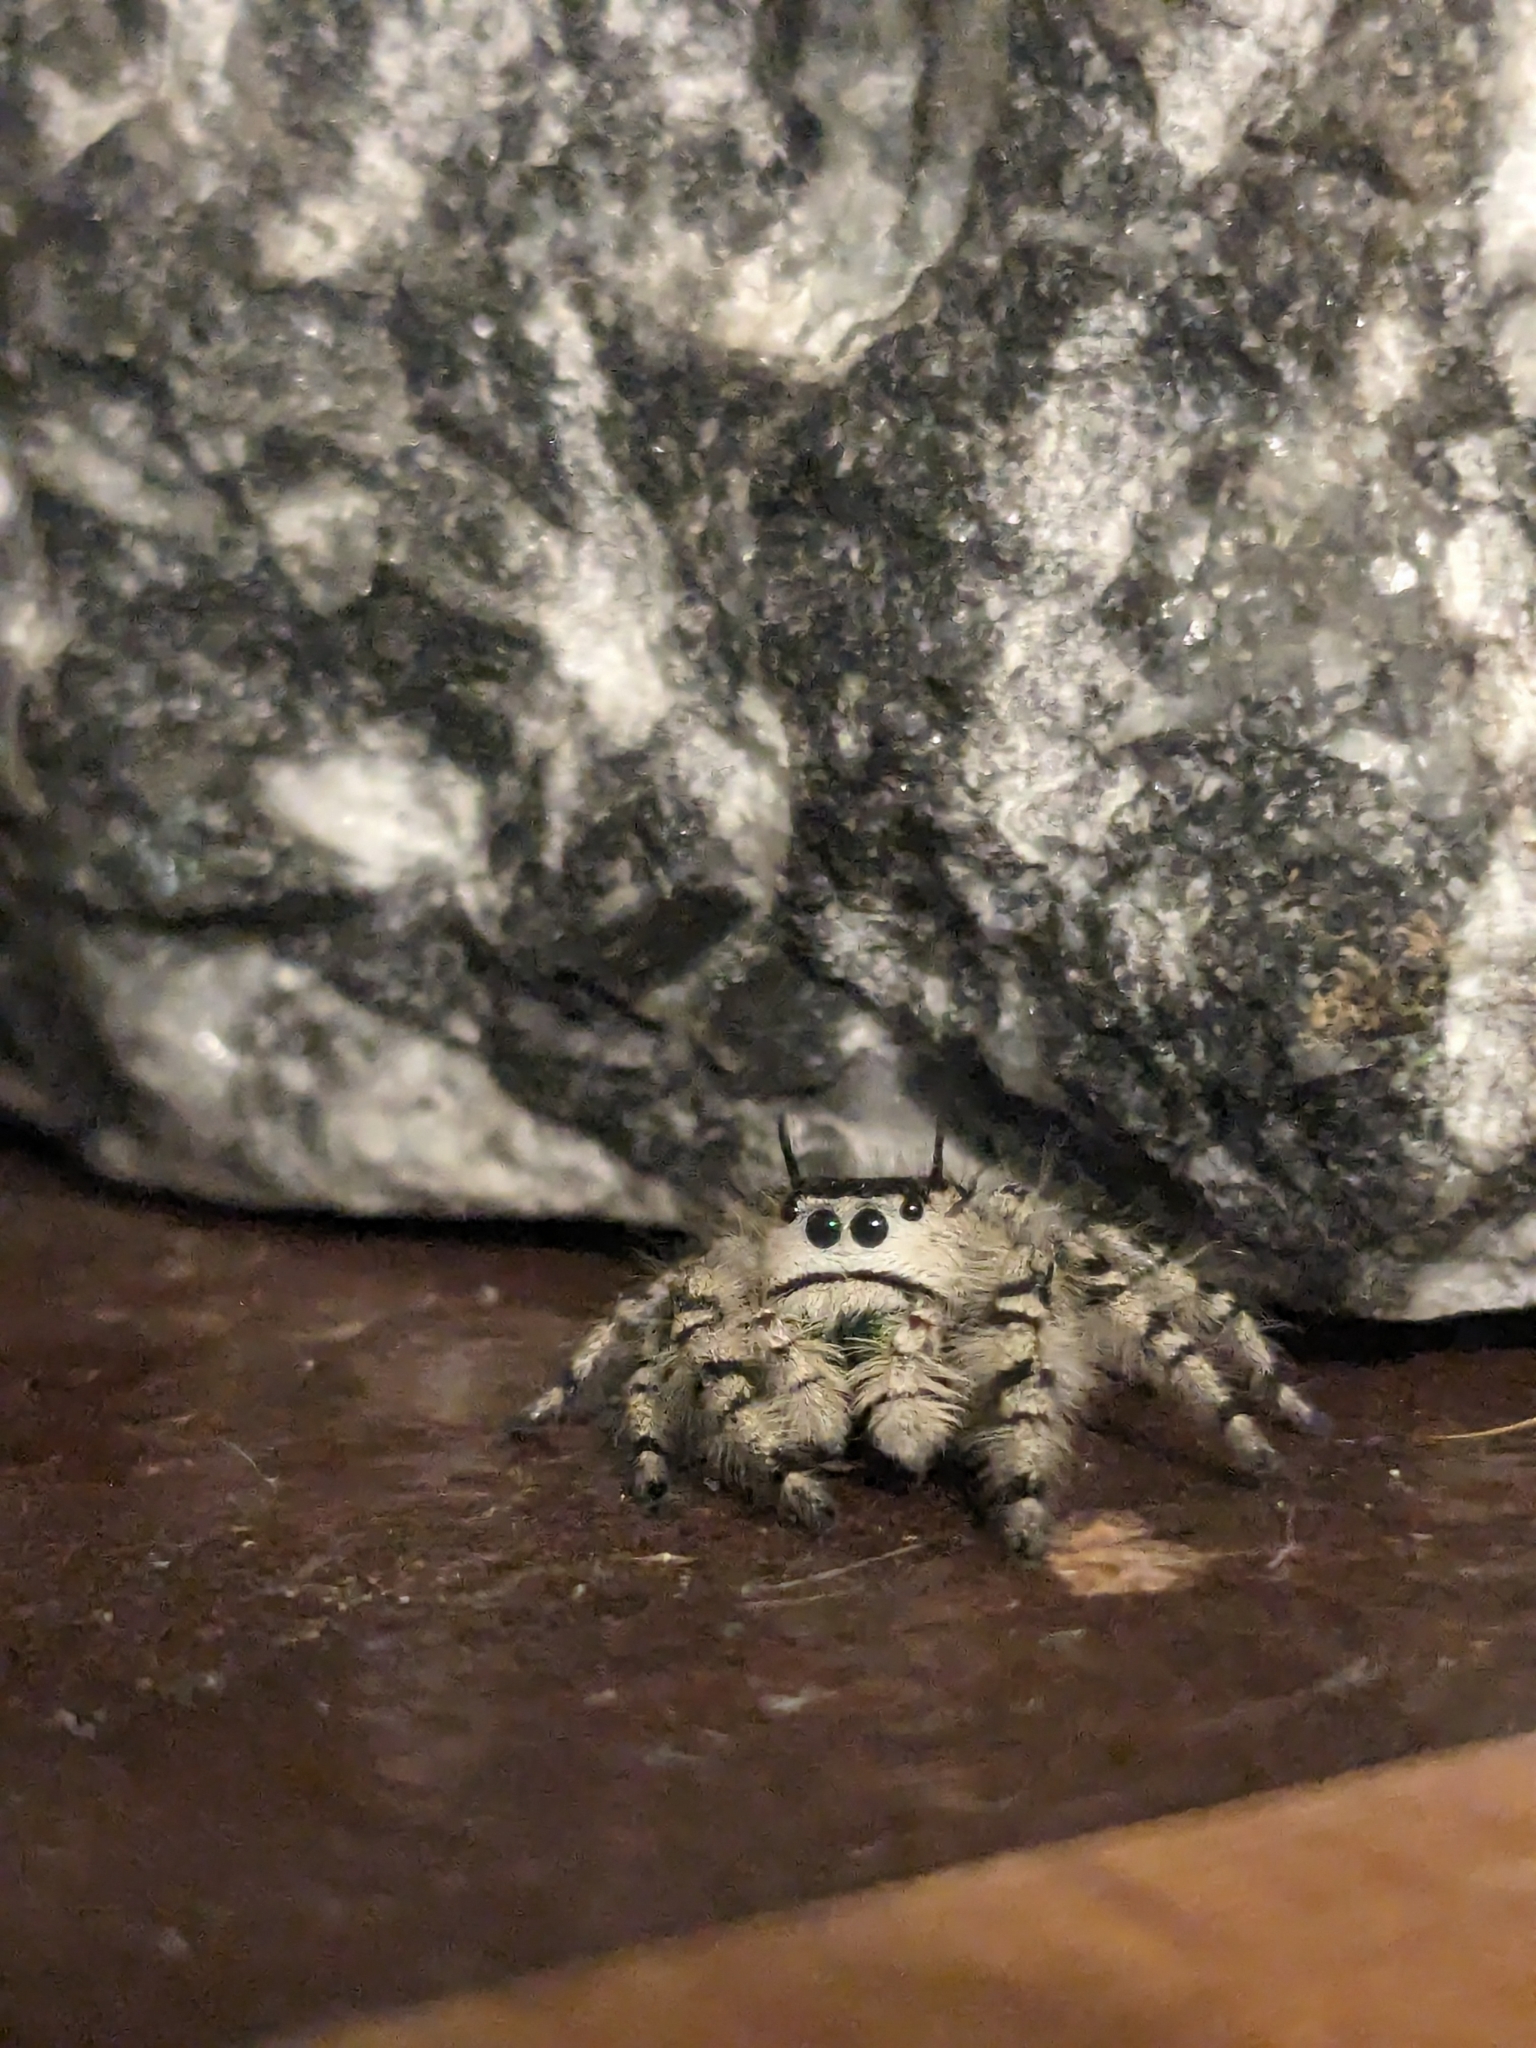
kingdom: Animalia
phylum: Arthropoda
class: Arachnida
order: Araneae
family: Salticidae
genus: Phidippus
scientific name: Phidippus otiosus
